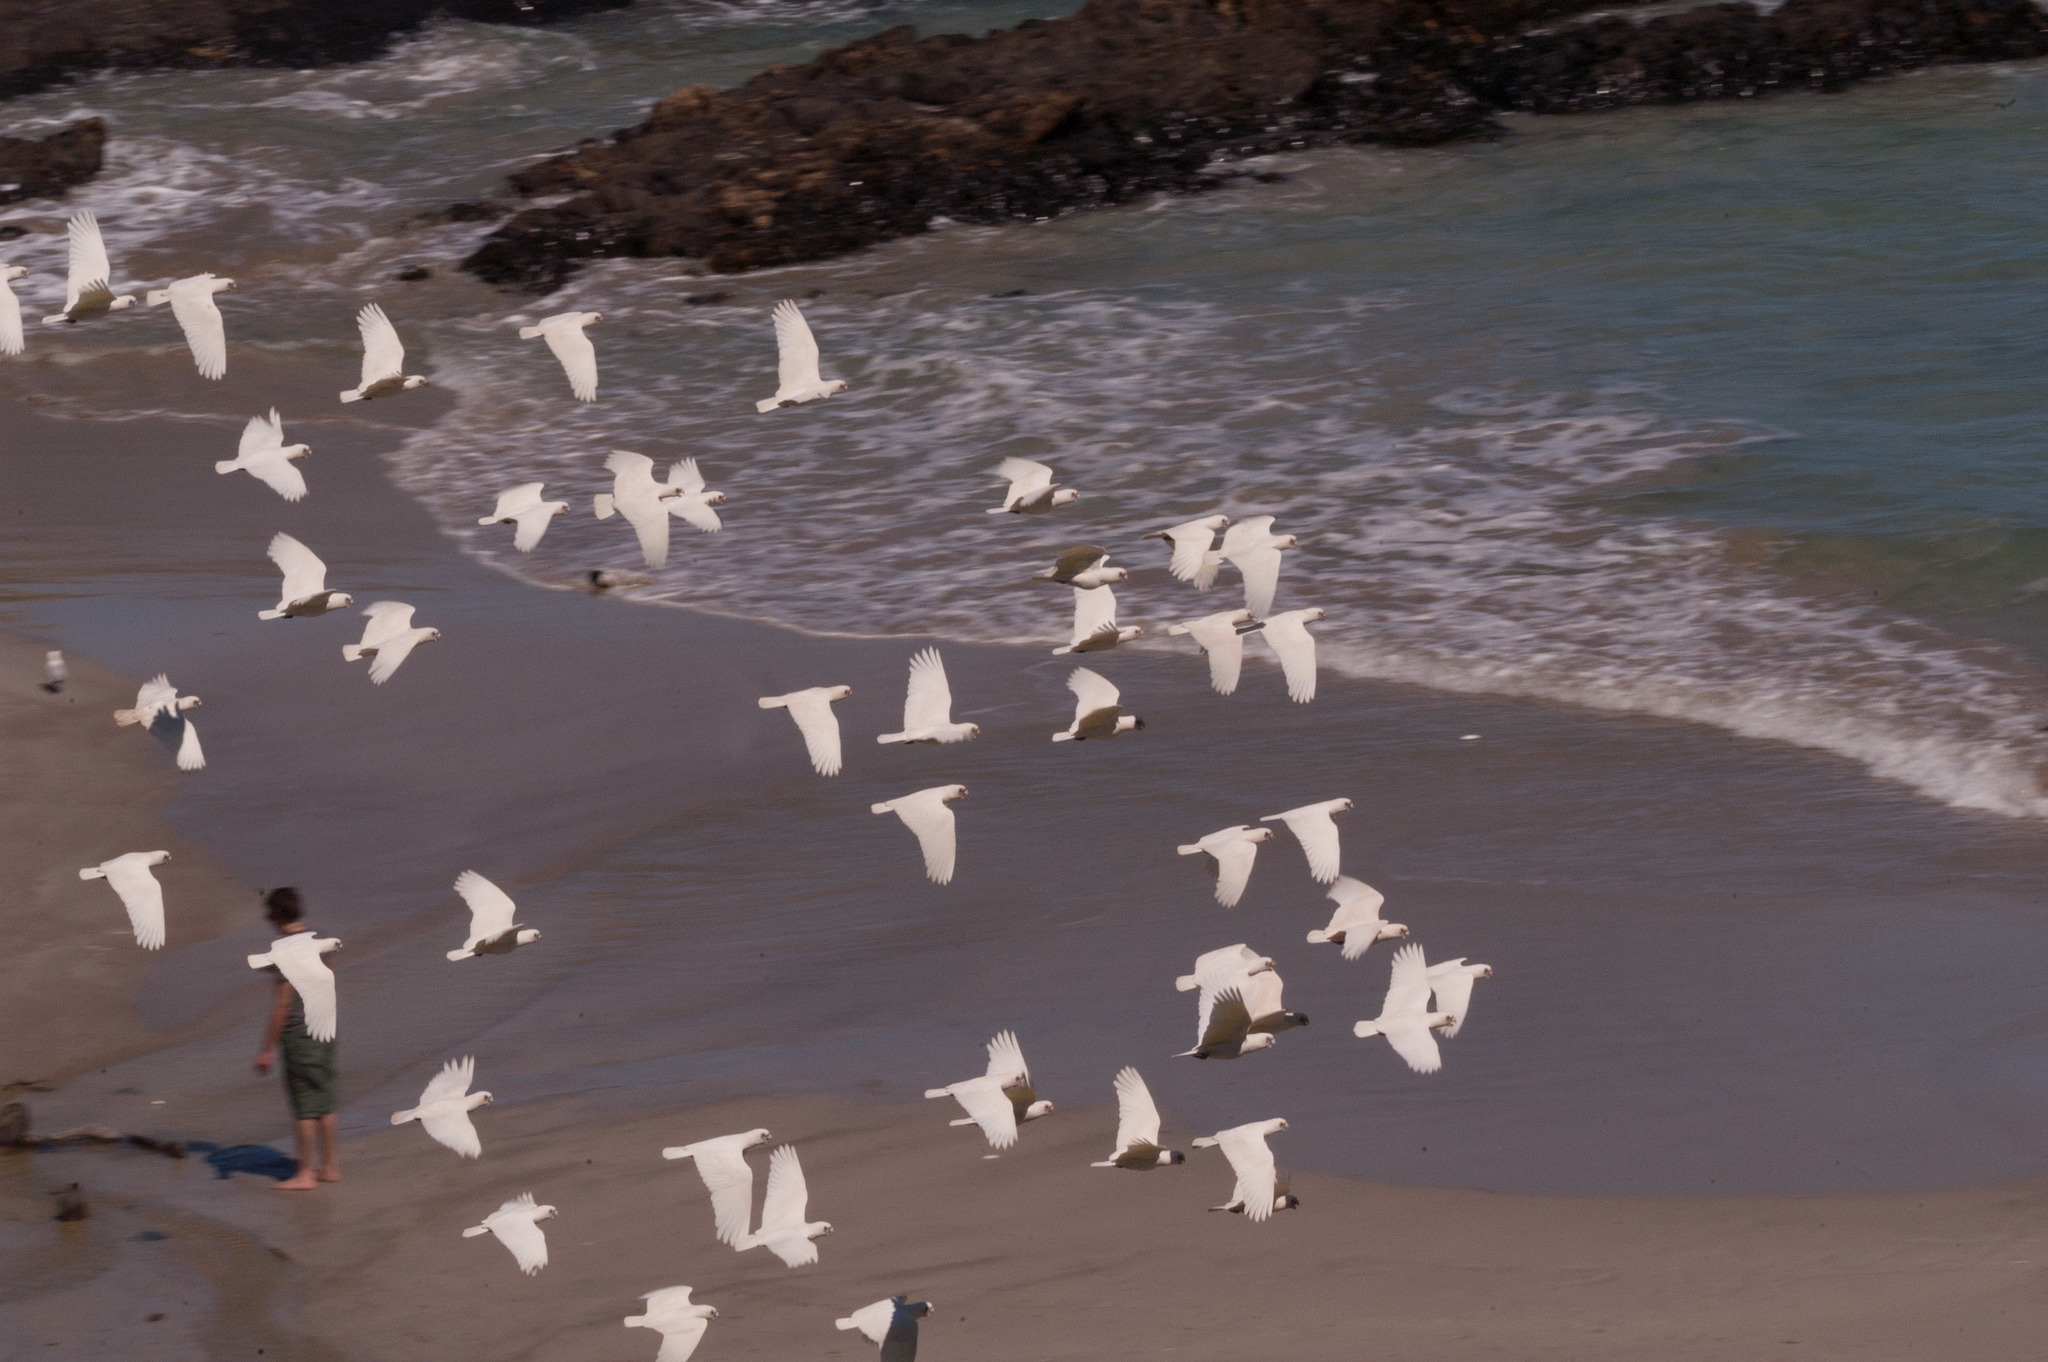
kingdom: Animalia
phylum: Chordata
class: Aves
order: Psittaciformes
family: Psittacidae
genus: Cacatua
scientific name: Cacatua sanguinea
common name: Little corella
